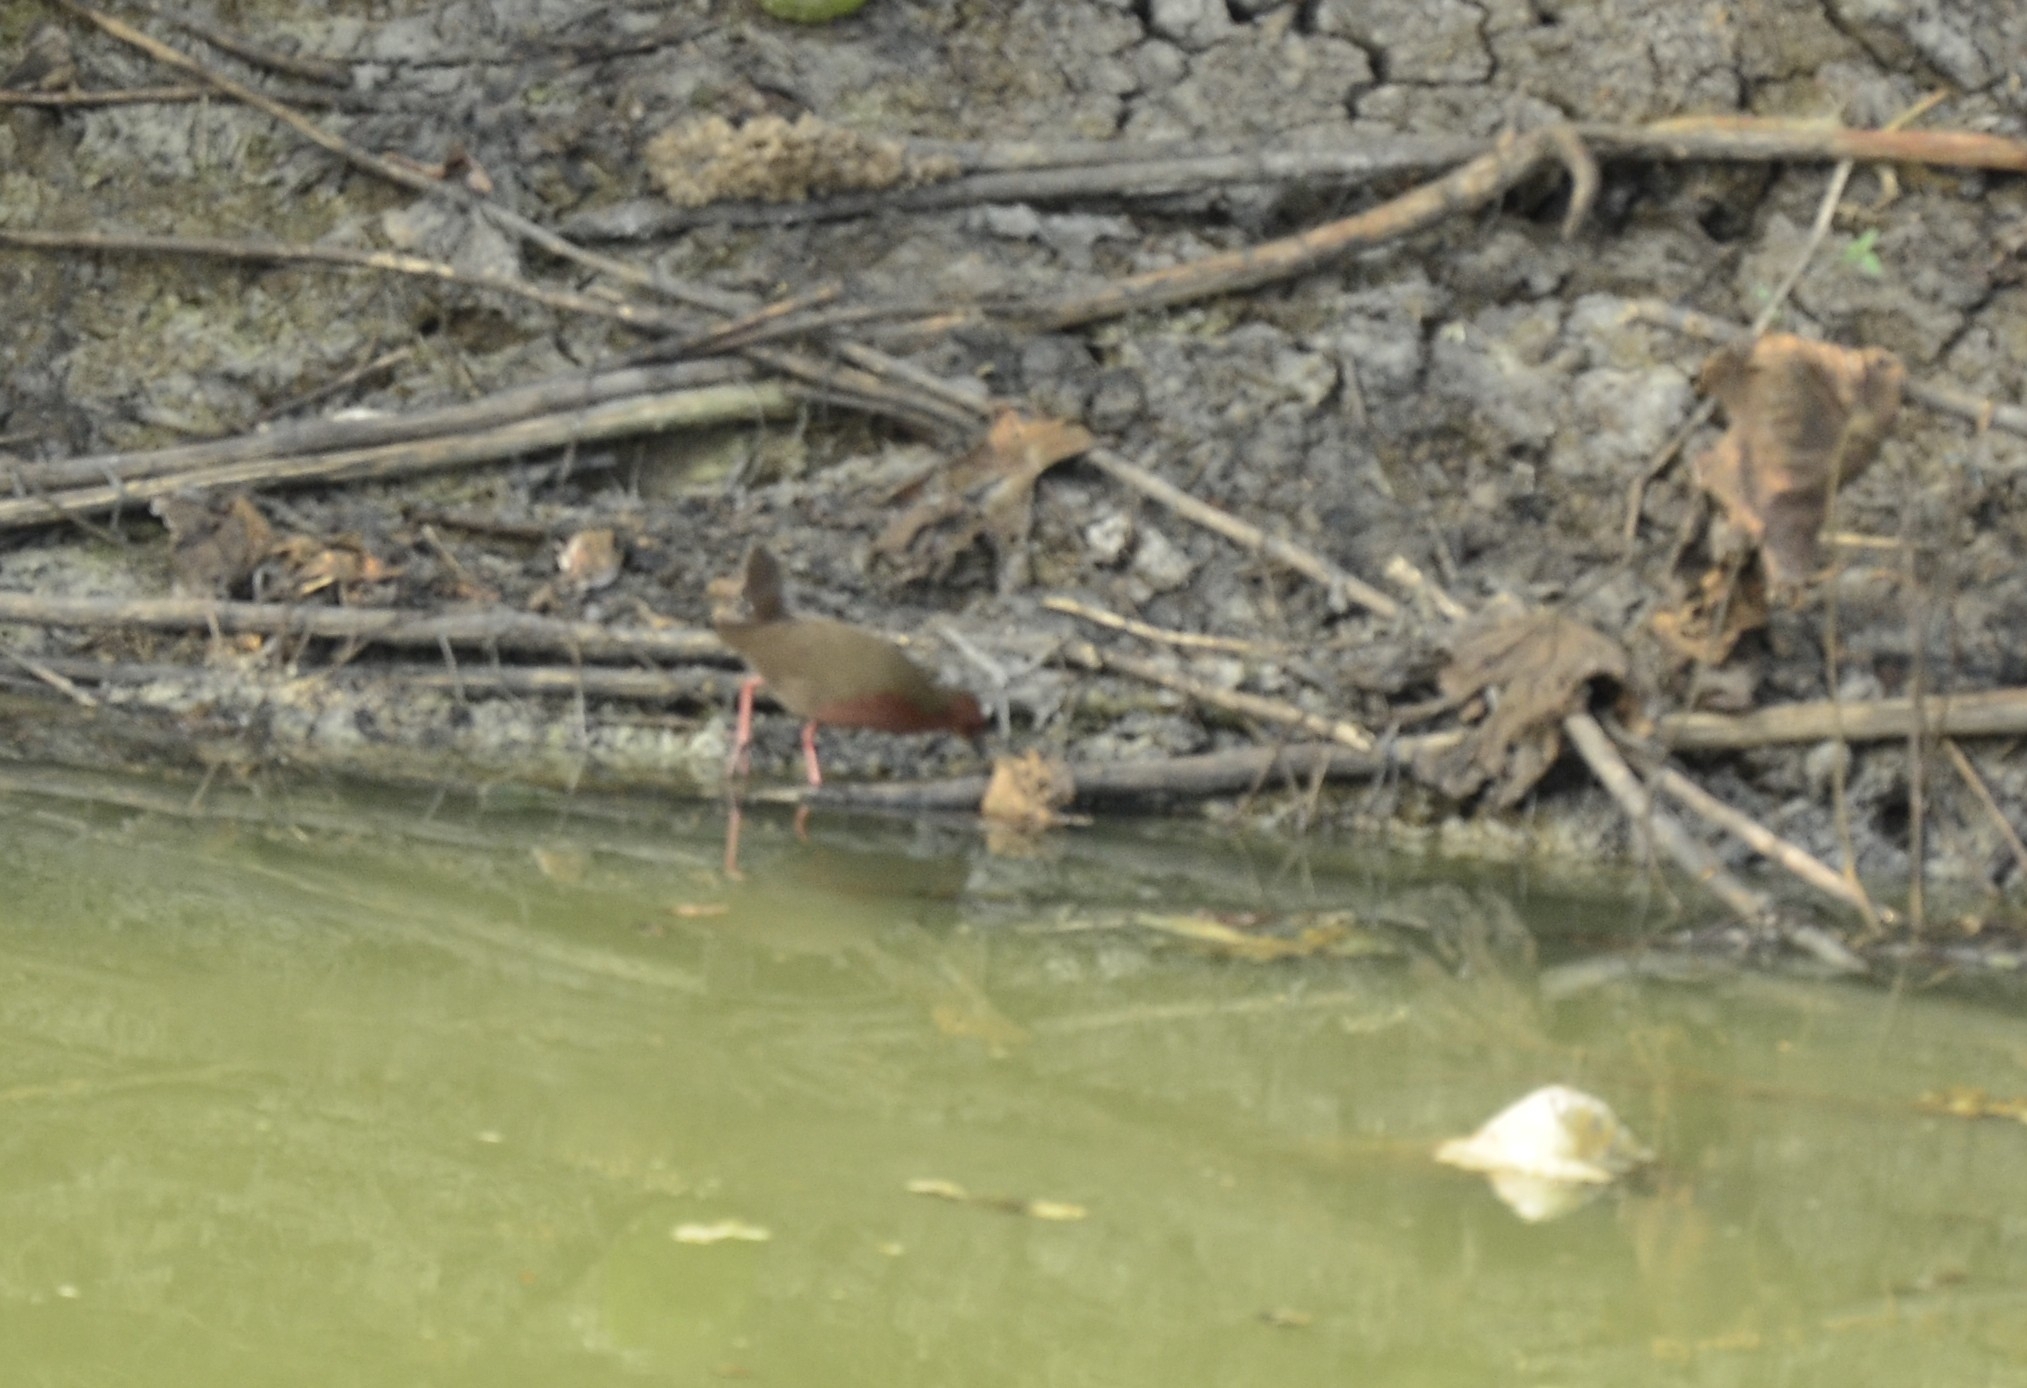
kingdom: Animalia
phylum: Chordata
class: Aves
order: Gruiformes
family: Rallidae
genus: Porzana
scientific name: Porzana fusca
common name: Ruddy-breasted crake
